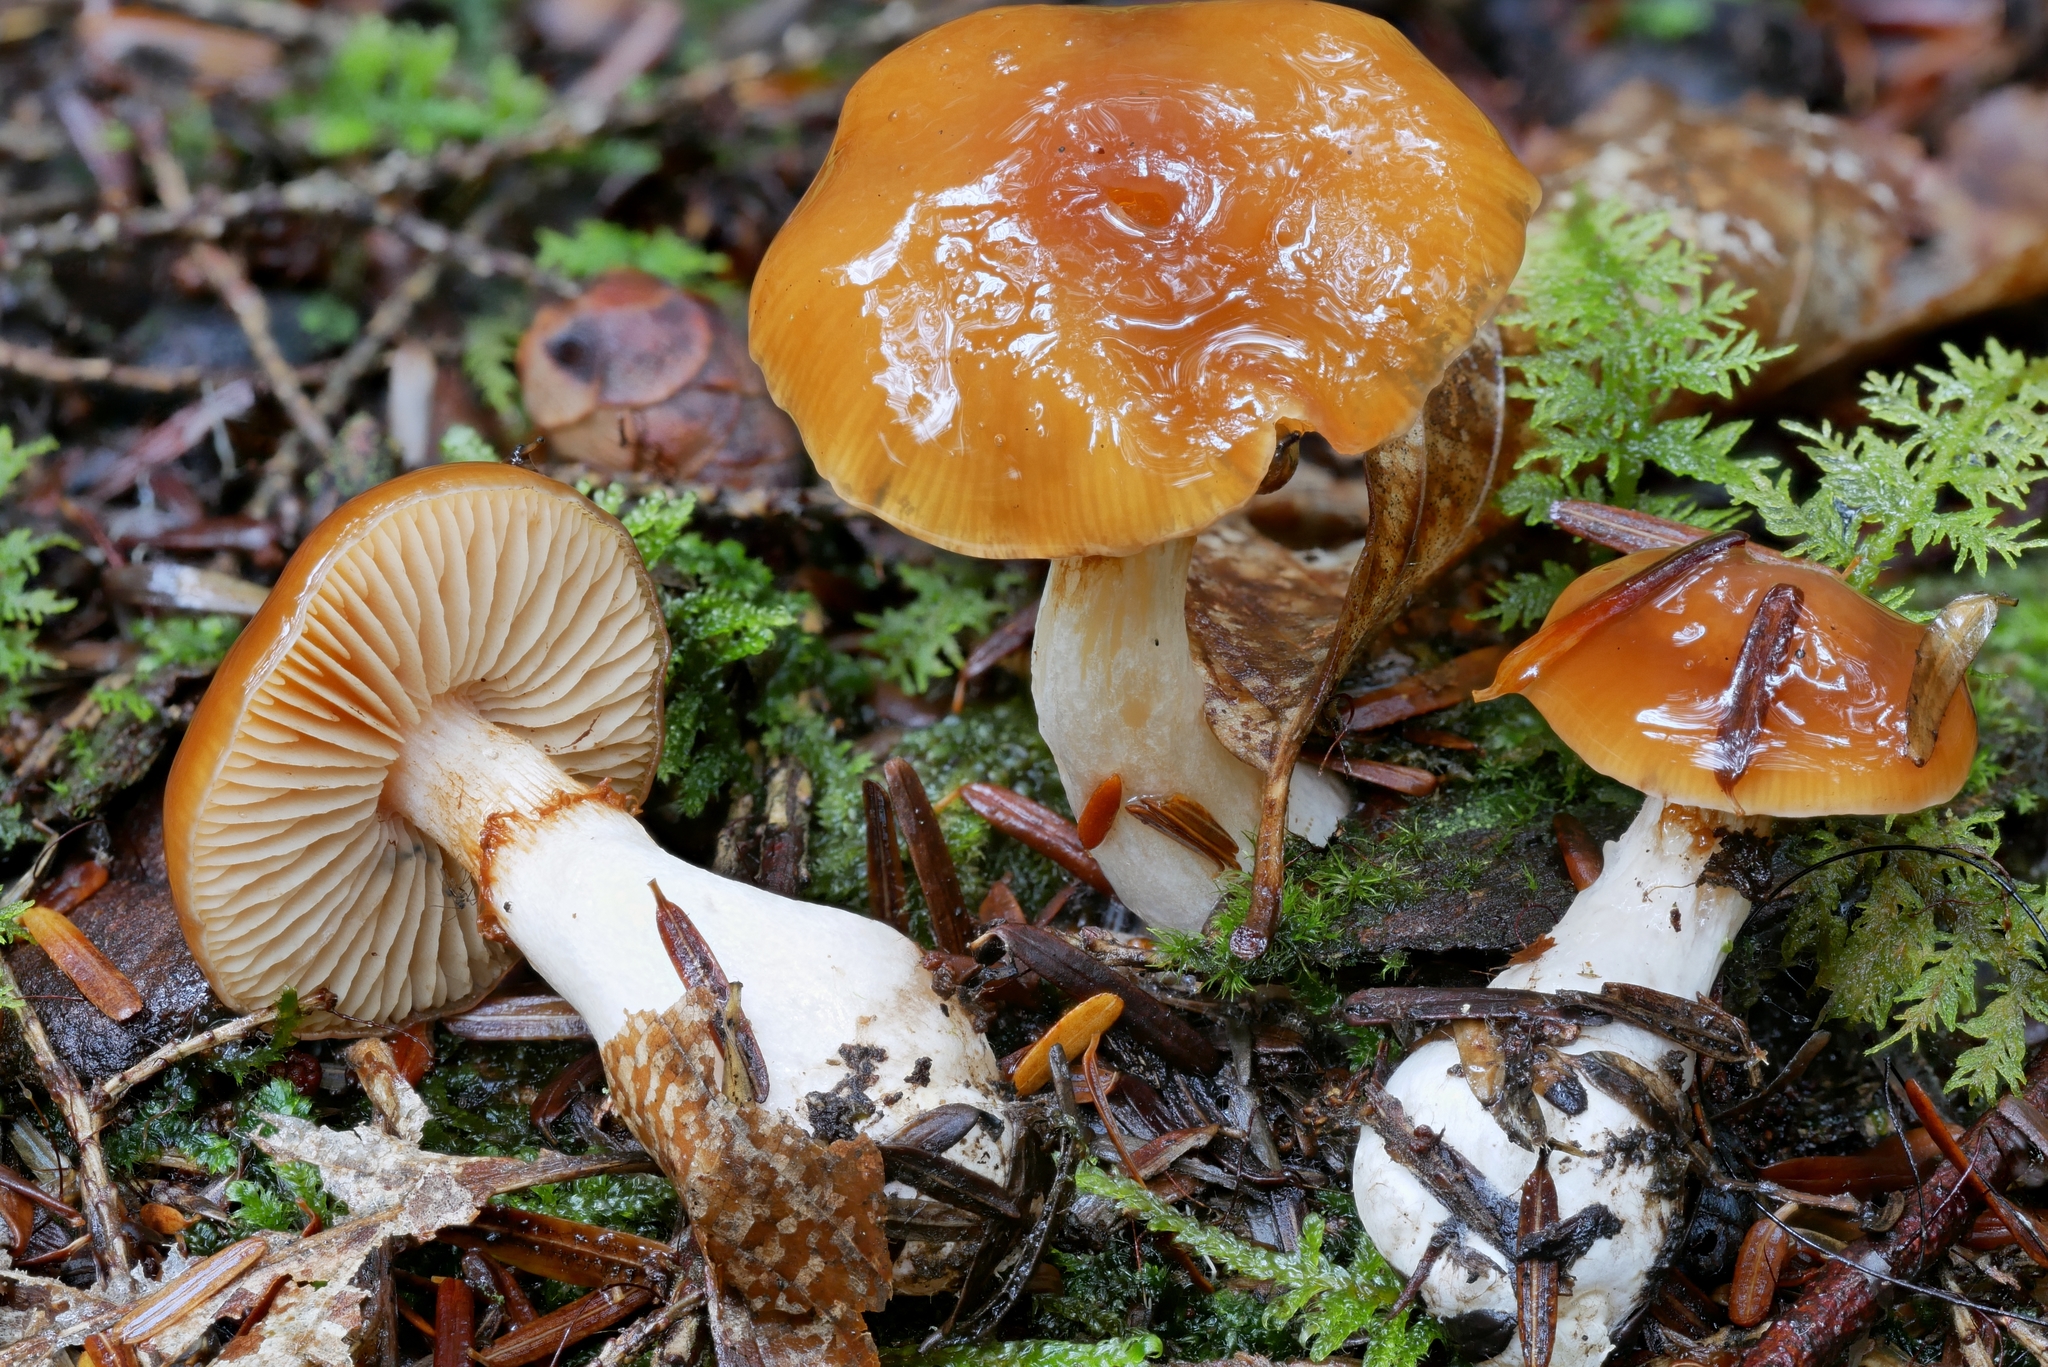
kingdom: Fungi
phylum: Basidiomycota
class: Agaricomycetes
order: Agaricales
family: Cortinariaceae
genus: Thaxterogaster
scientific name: Thaxterogaster causticus
